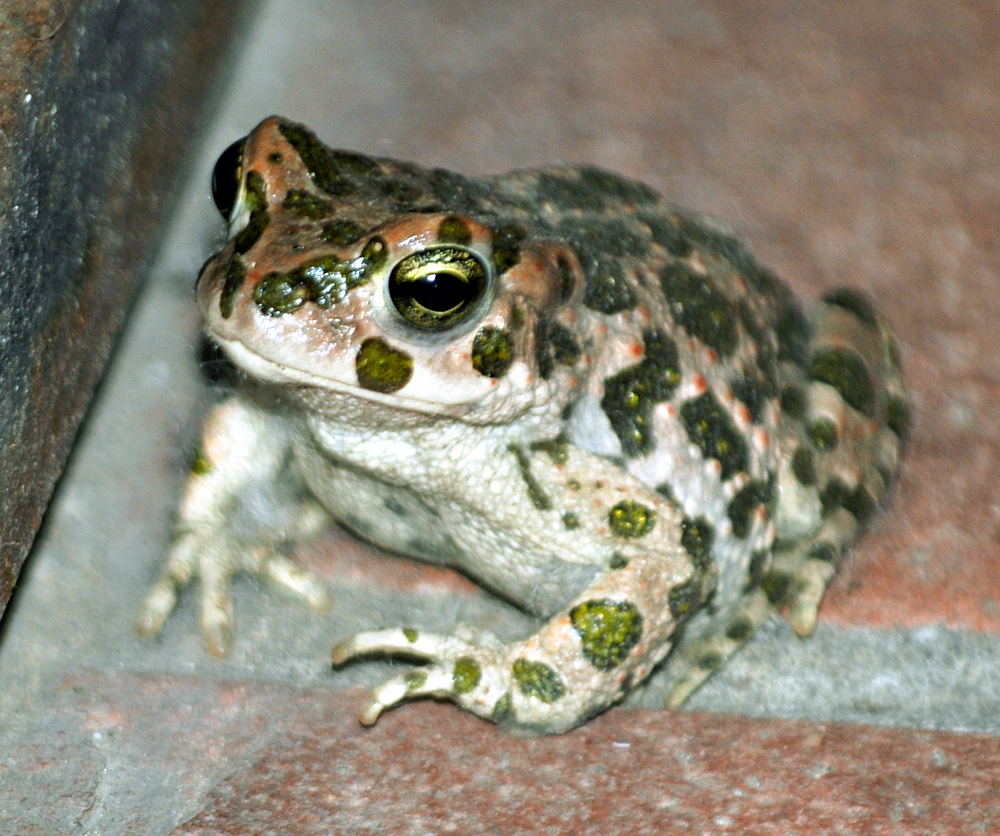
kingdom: Animalia
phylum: Chordata
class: Amphibia
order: Anura
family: Bufonidae
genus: Bufotes
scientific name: Bufotes viridis
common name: European green toad
